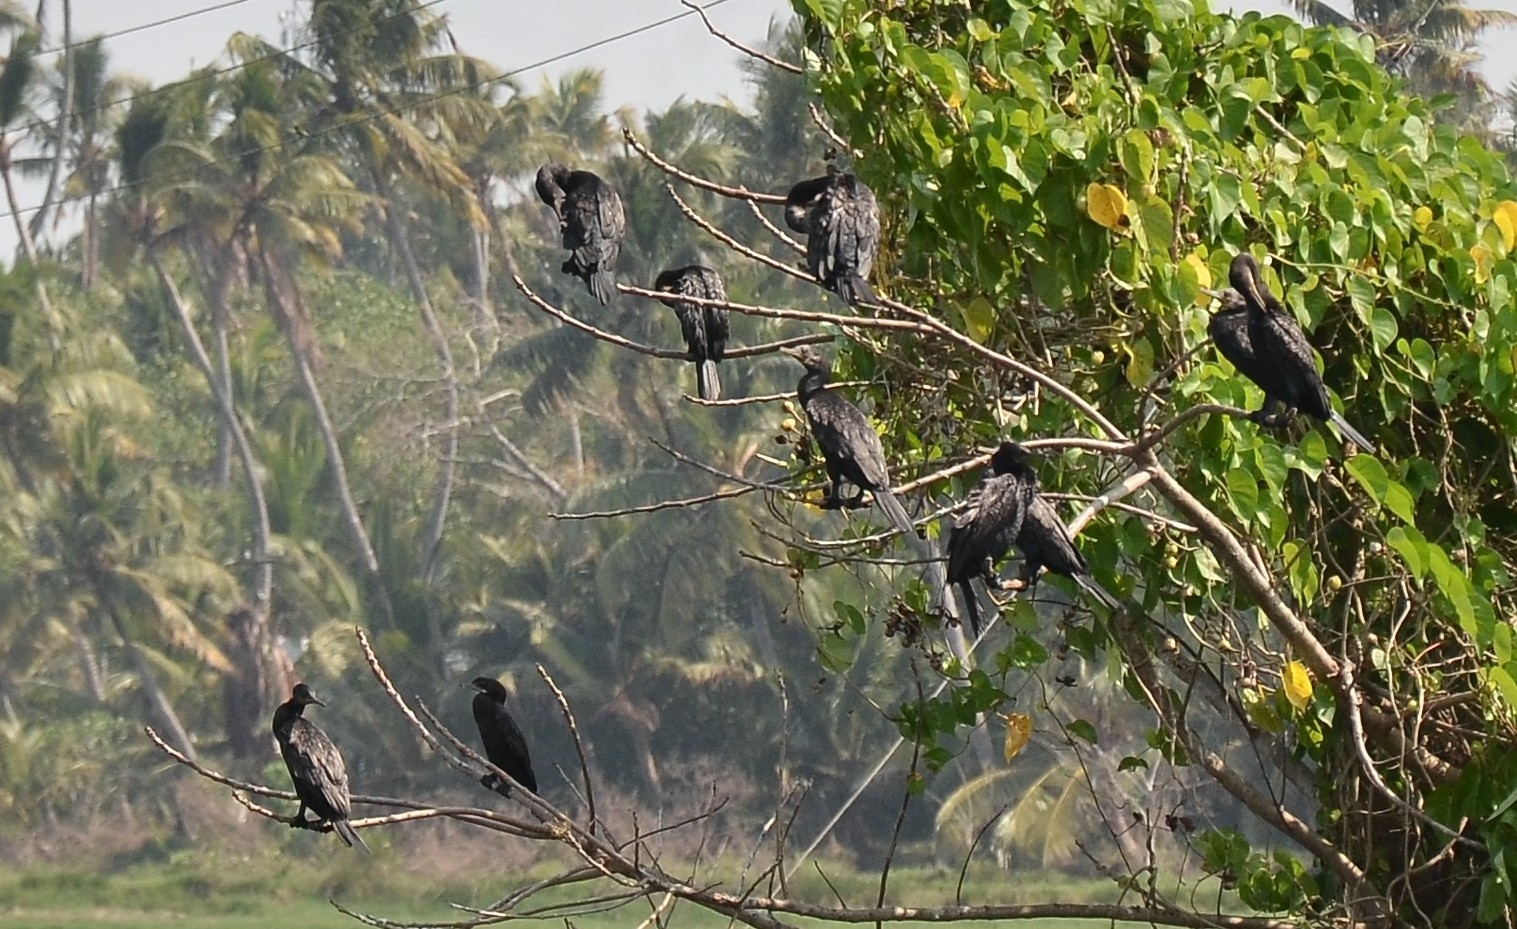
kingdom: Animalia
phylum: Chordata
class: Aves
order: Suliformes
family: Phalacrocoracidae
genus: Microcarbo
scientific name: Microcarbo niger
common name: Little cormorant
